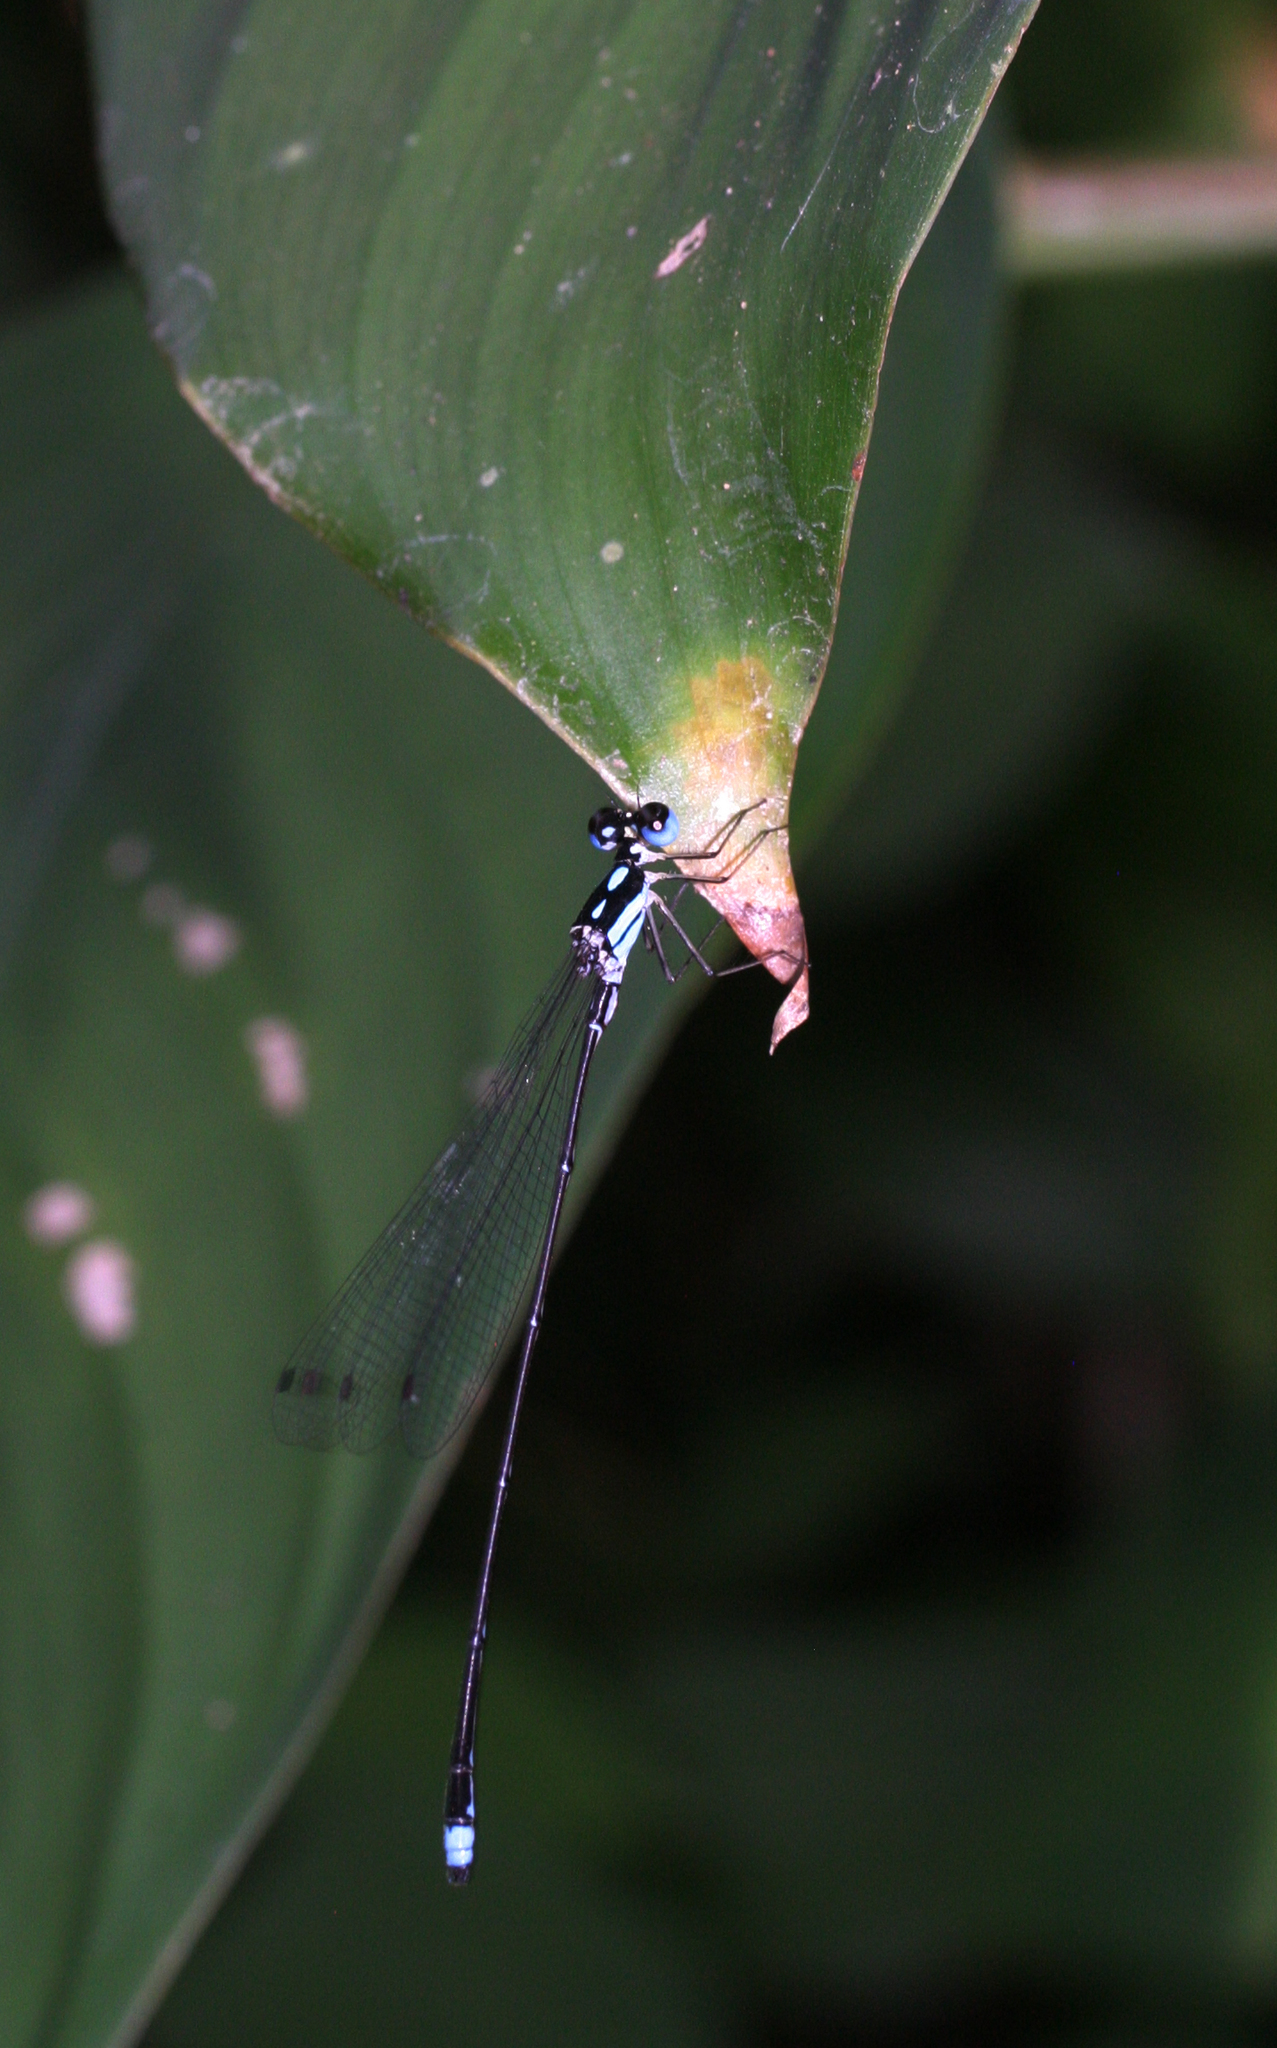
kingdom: Animalia
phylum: Arthropoda
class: Insecta
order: Odonata
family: Platycnemididae
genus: Coeliccia
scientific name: Coeliccia didyma
